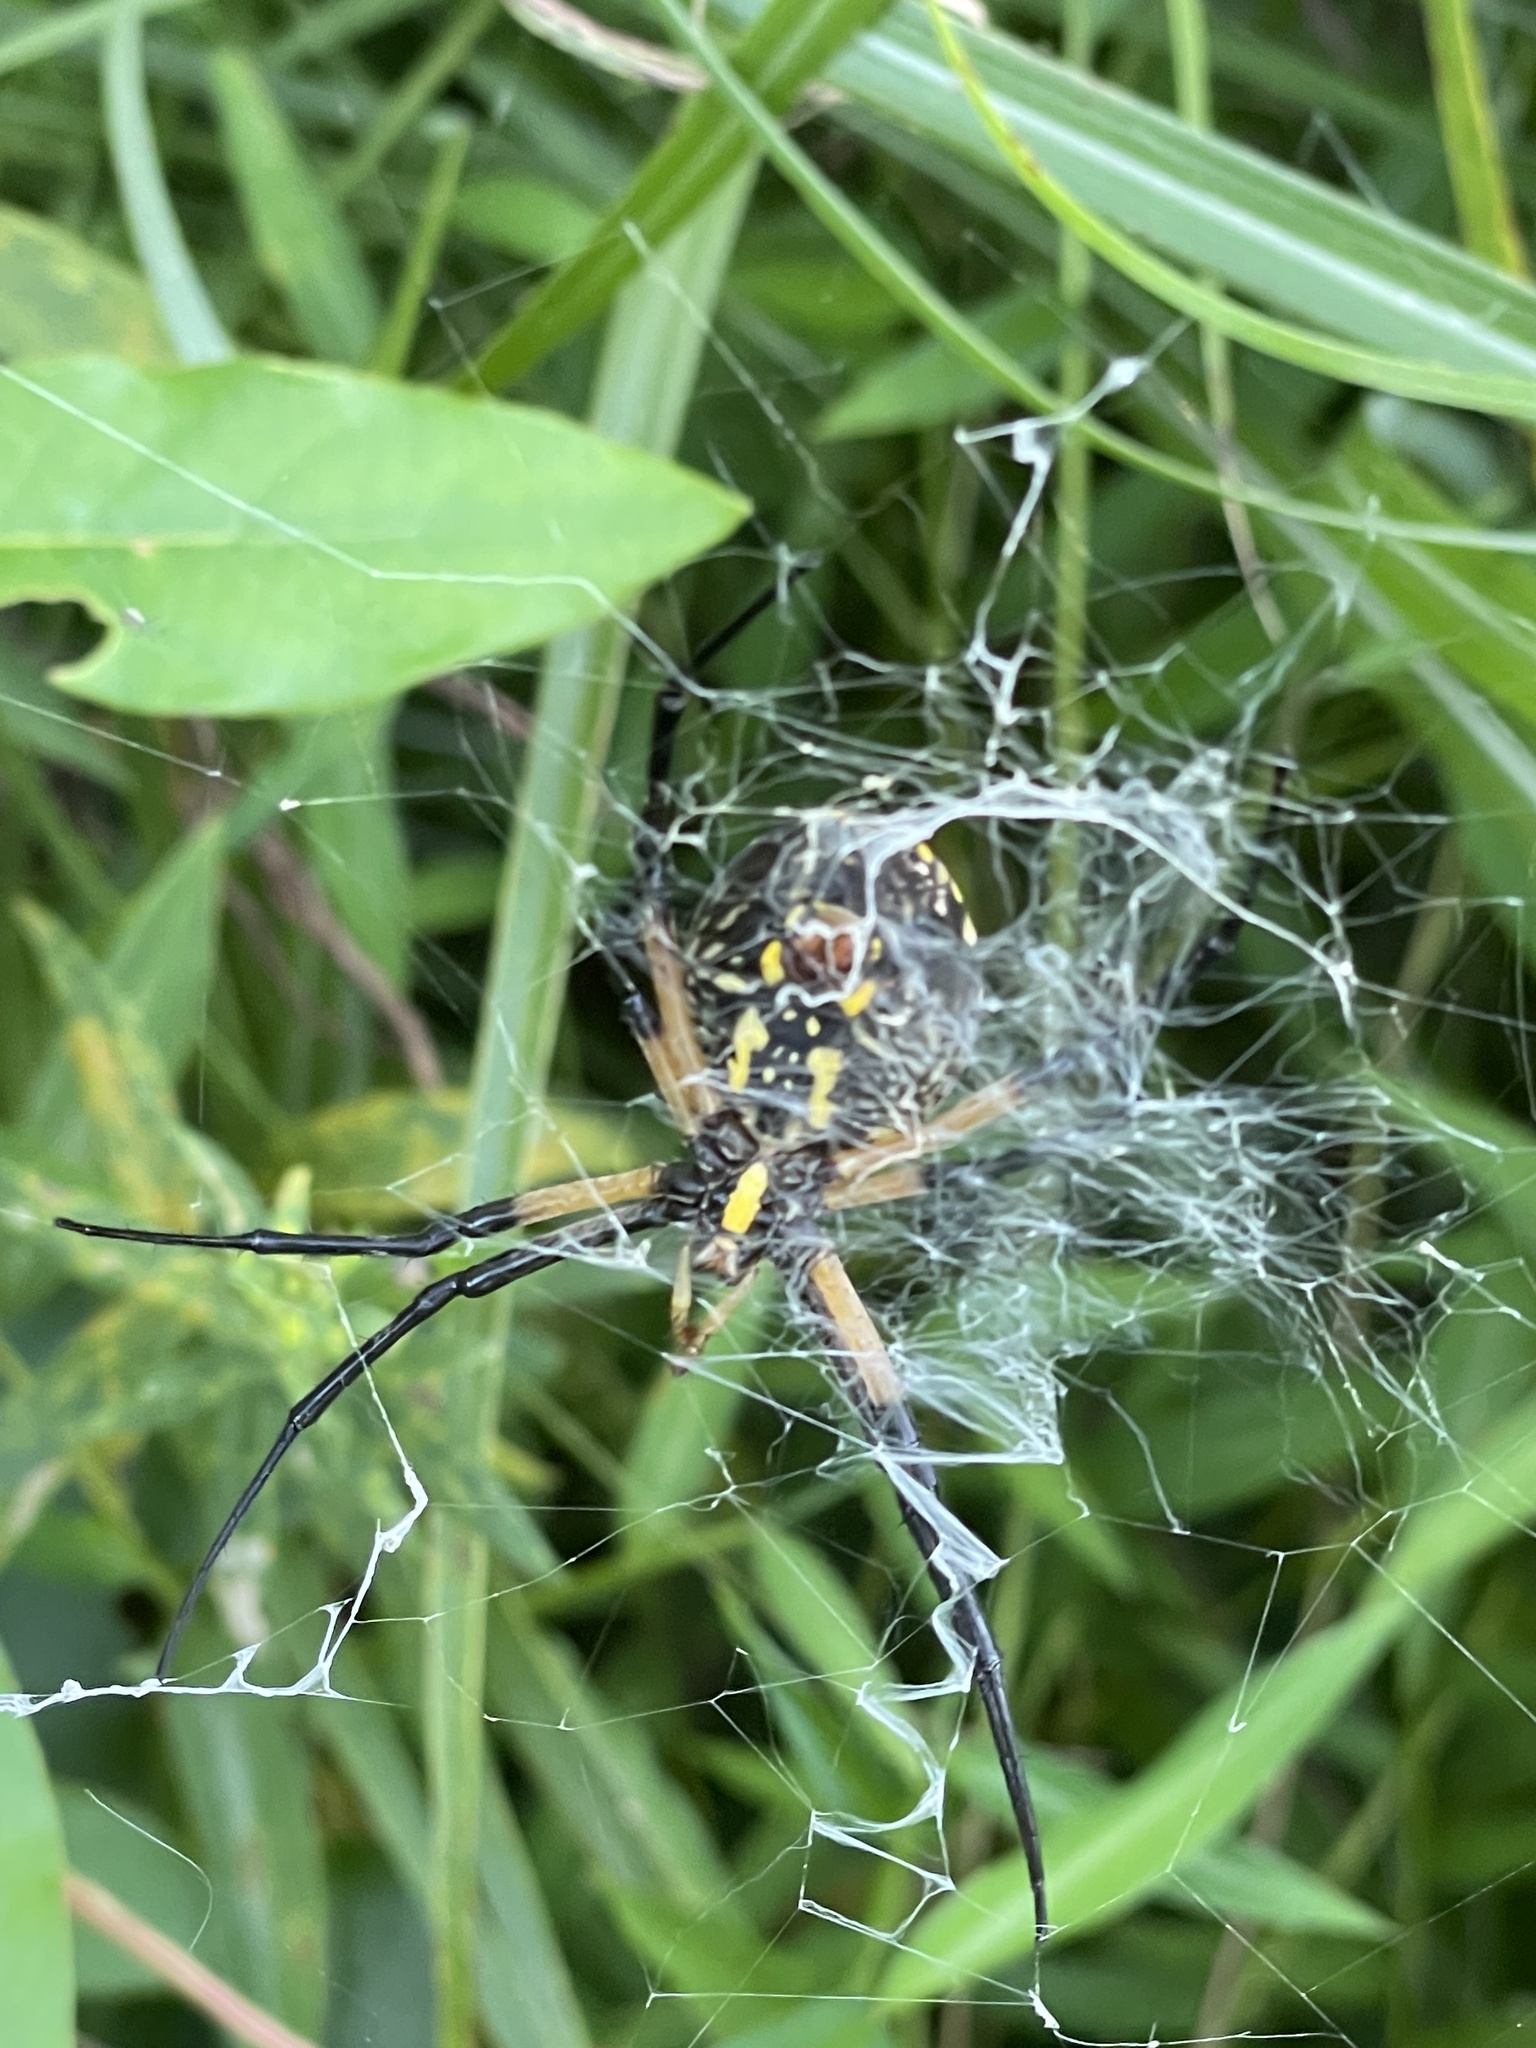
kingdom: Animalia
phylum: Arthropoda
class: Arachnida
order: Araneae
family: Araneidae
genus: Argiope
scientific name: Argiope aurantia
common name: Orb weavers
